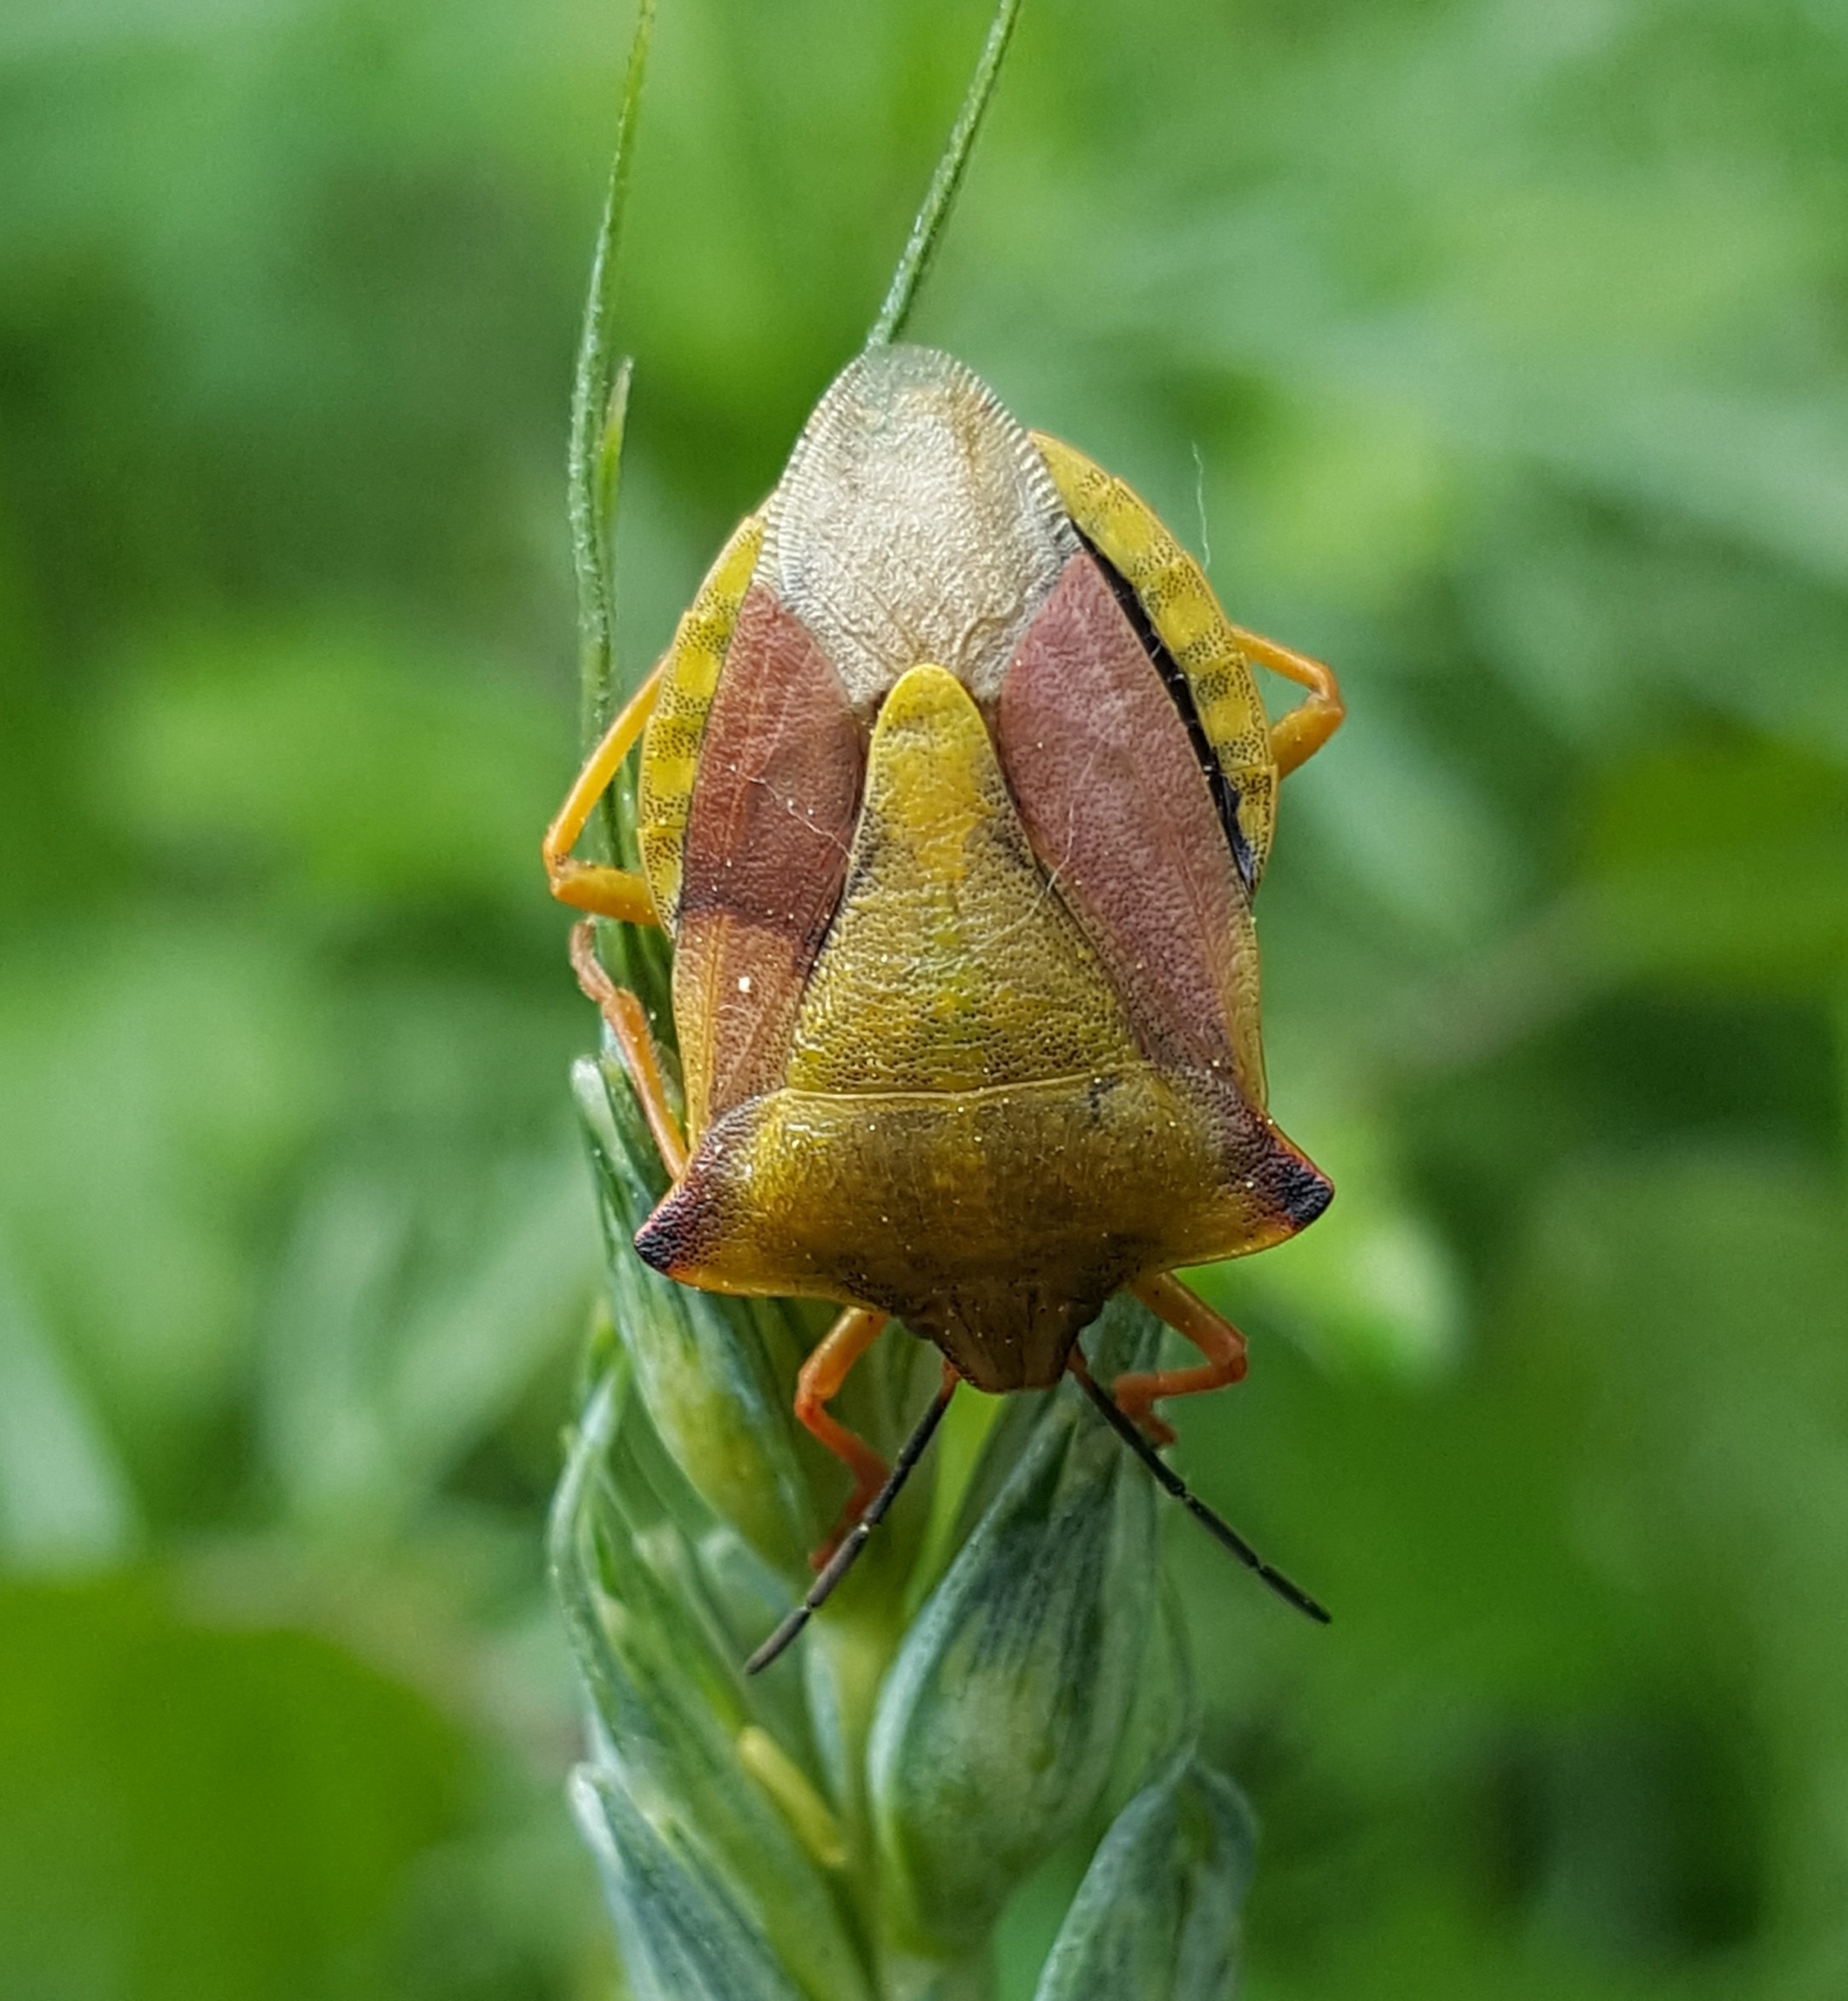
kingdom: Animalia
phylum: Arthropoda
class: Insecta
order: Hemiptera
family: Pentatomidae
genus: Carpocoris
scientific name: Carpocoris fuscispinus
